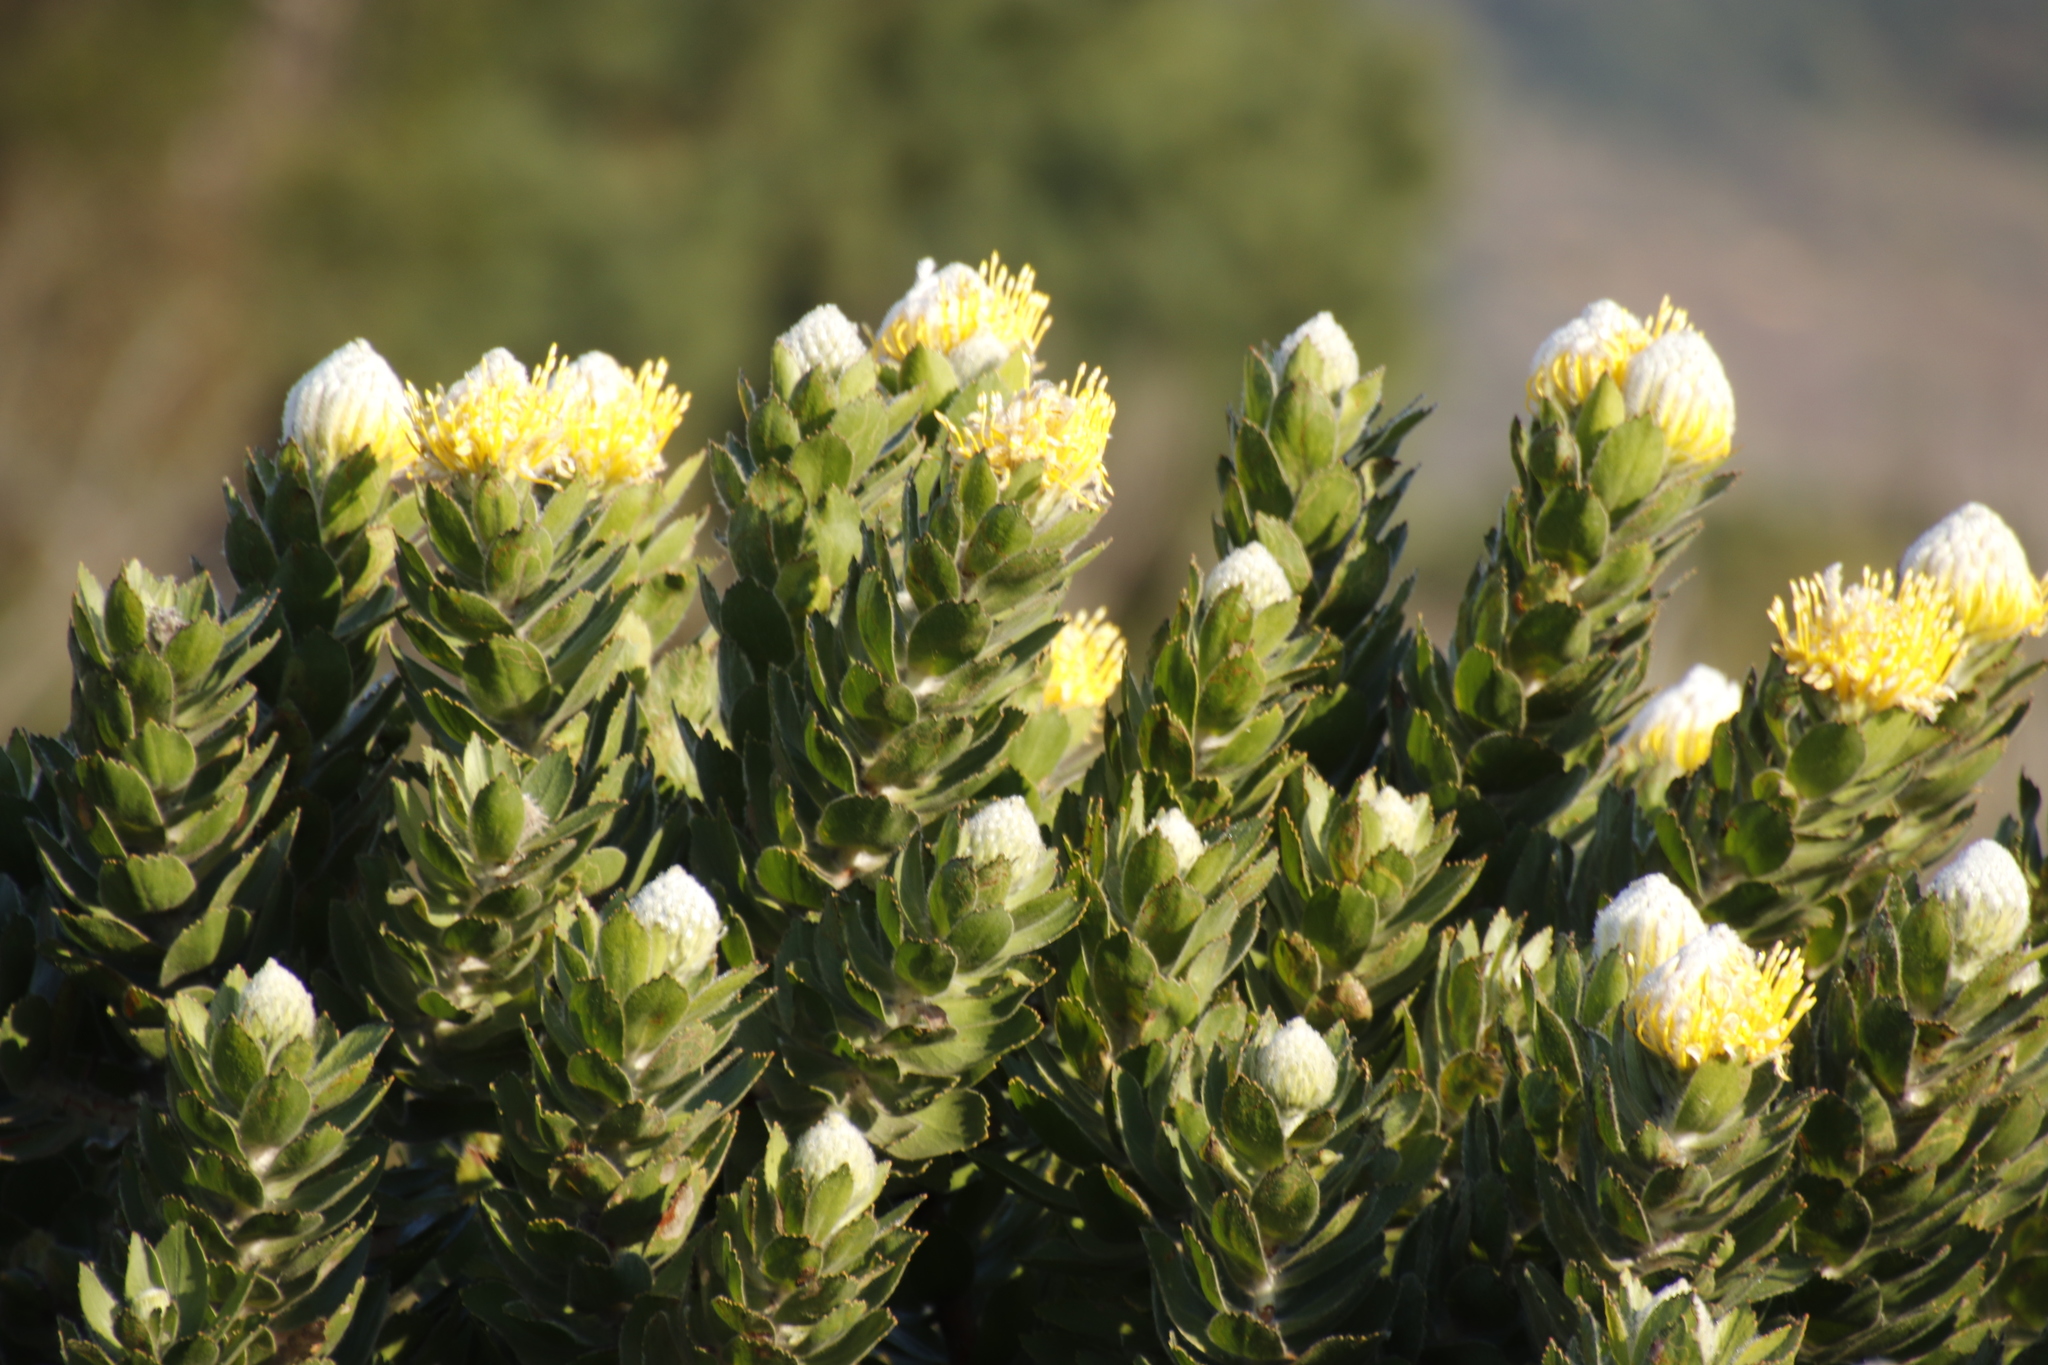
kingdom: Plantae
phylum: Tracheophyta
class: Magnoliopsida
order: Proteales
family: Proteaceae
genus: Leucospermum
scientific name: Leucospermum conocarpodendron
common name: Tree pincushion
